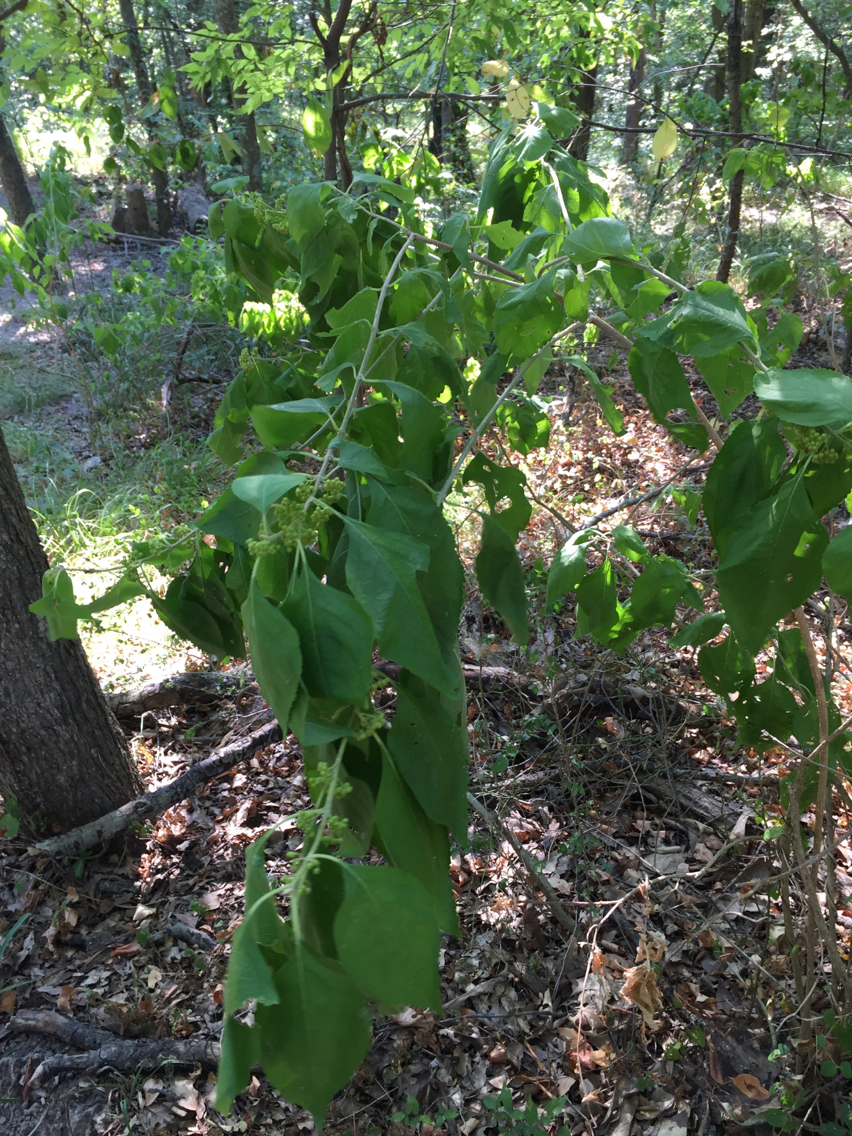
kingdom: Plantae
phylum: Tracheophyta
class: Magnoliopsida
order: Lamiales
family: Lamiaceae
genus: Callicarpa
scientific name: Callicarpa americana
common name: American beautyberry
